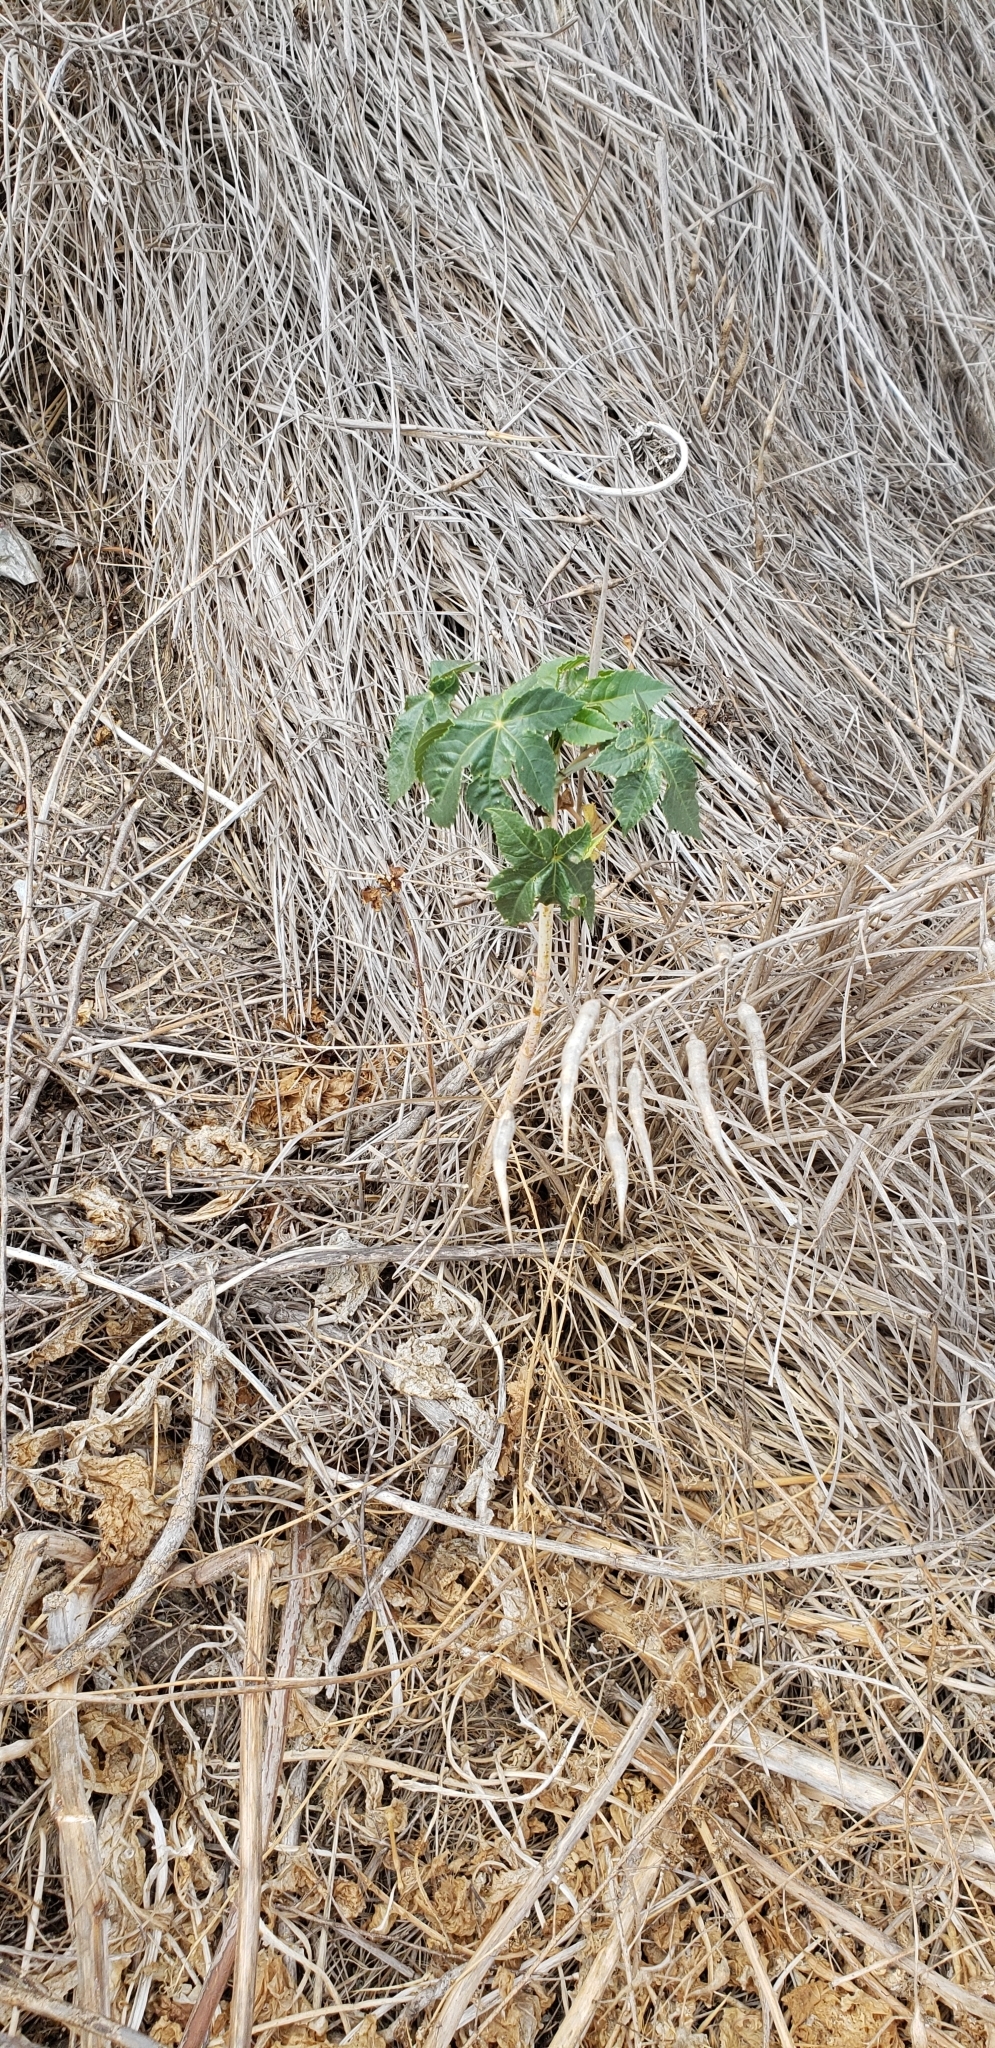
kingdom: Plantae
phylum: Tracheophyta
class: Magnoliopsida
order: Malpighiales
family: Euphorbiaceae
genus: Ricinus
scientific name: Ricinus communis
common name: Castor-oil-plant
